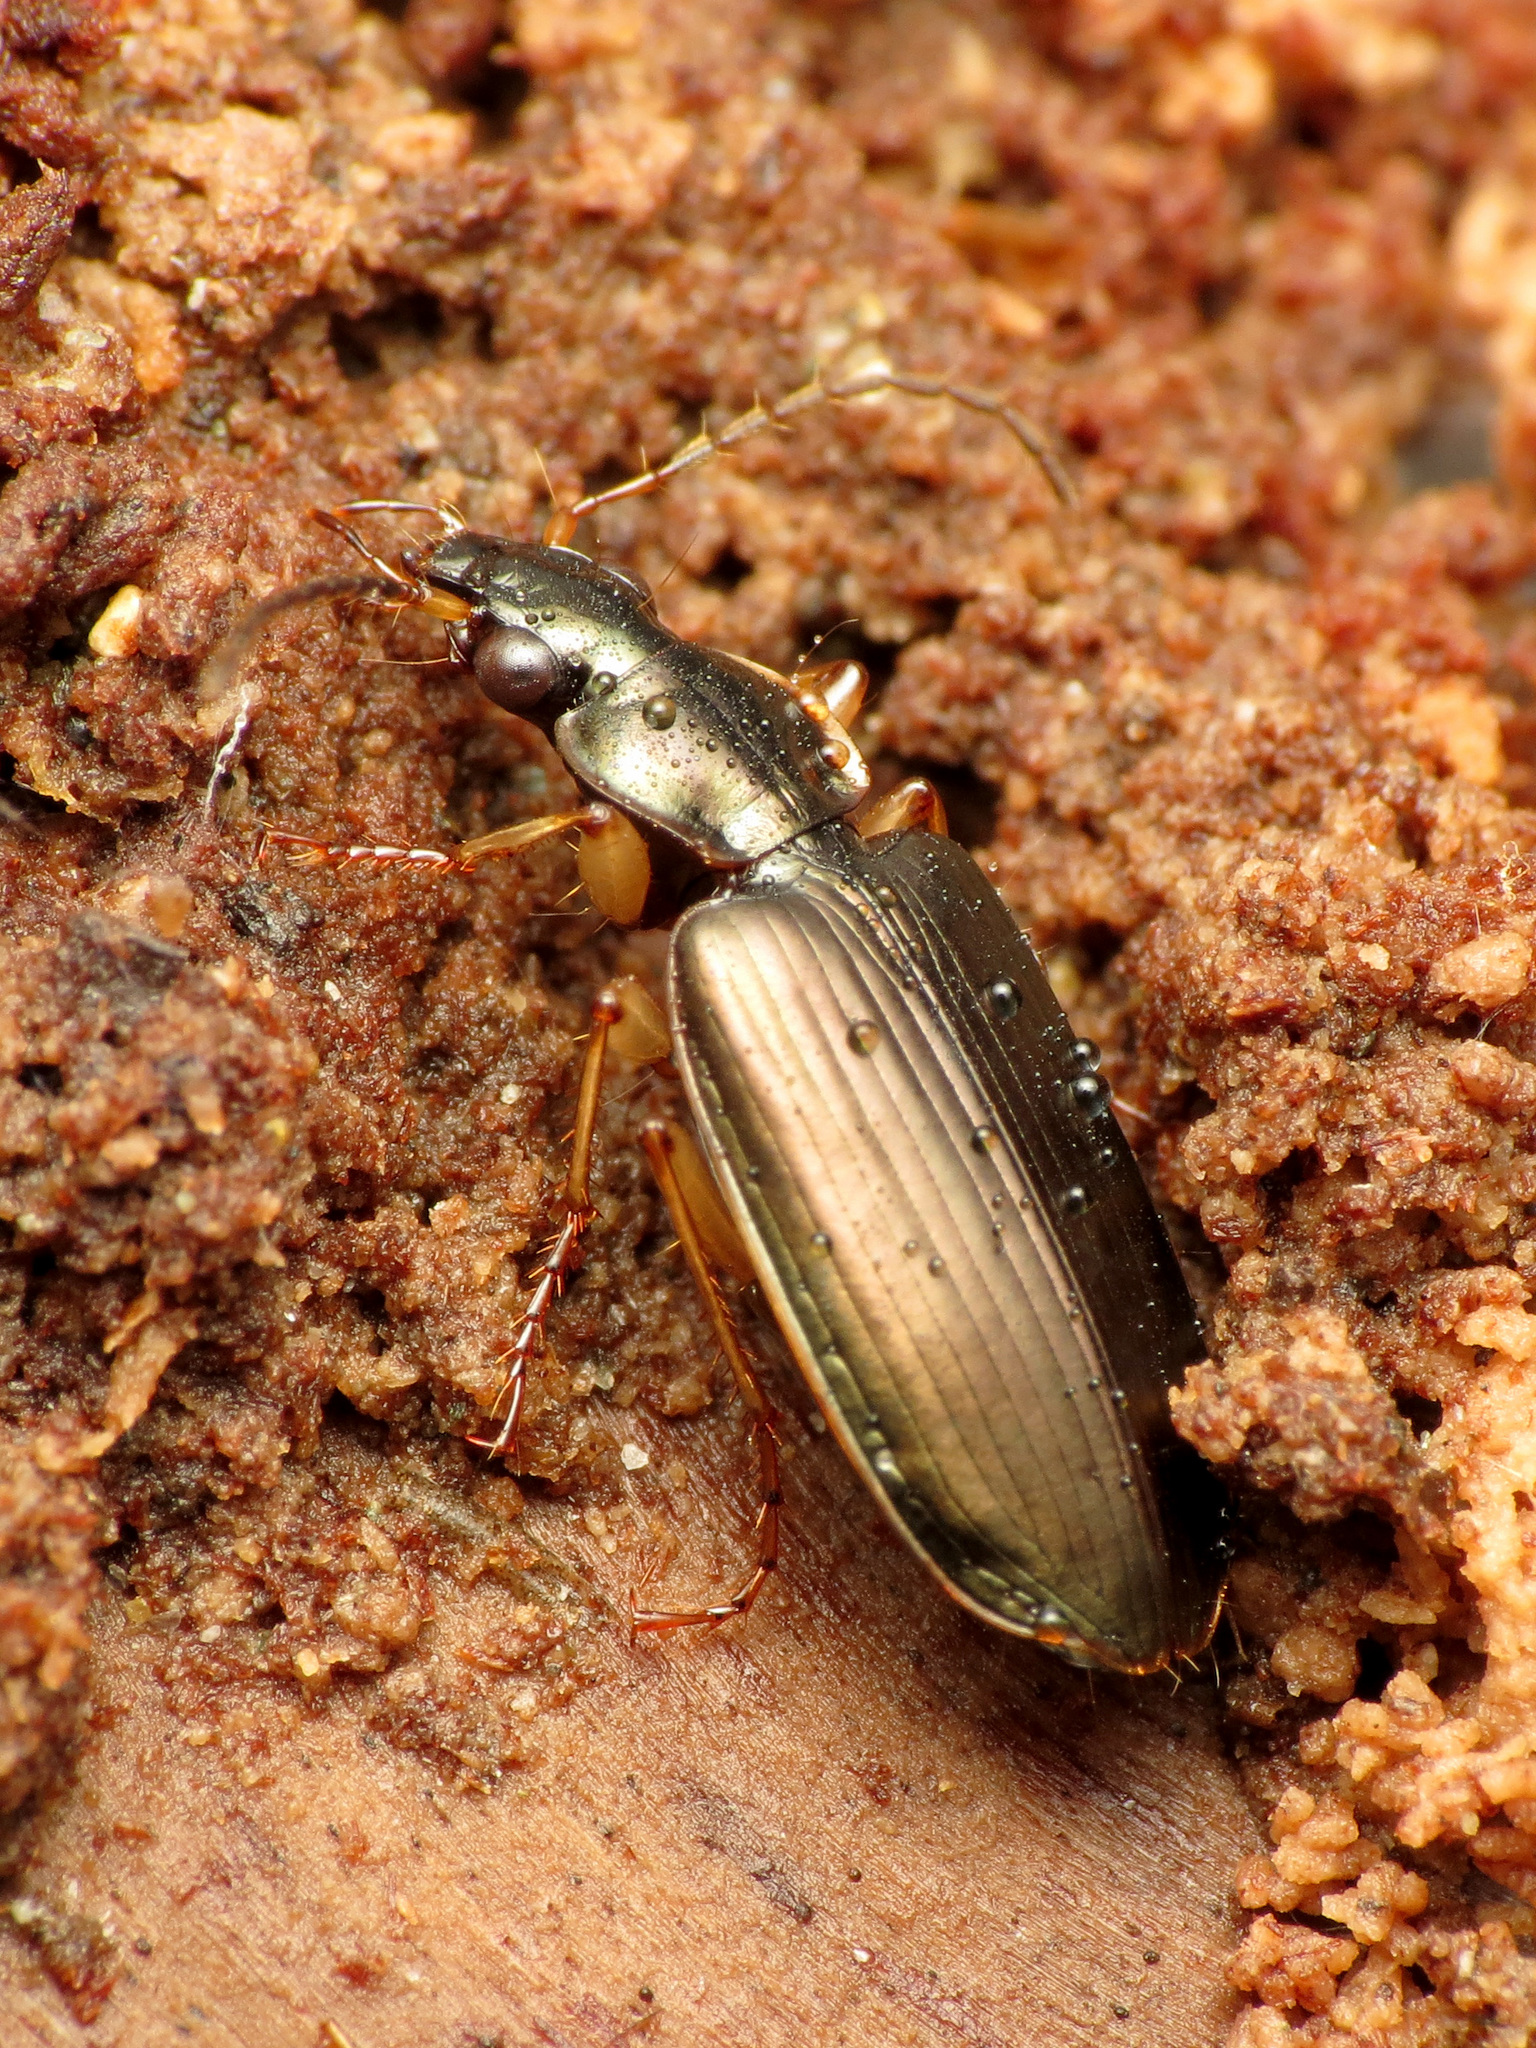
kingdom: Animalia
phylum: Arthropoda
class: Insecta
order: Coleoptera
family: Carabidae
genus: Notagonum
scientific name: Notagonum submetallicum
